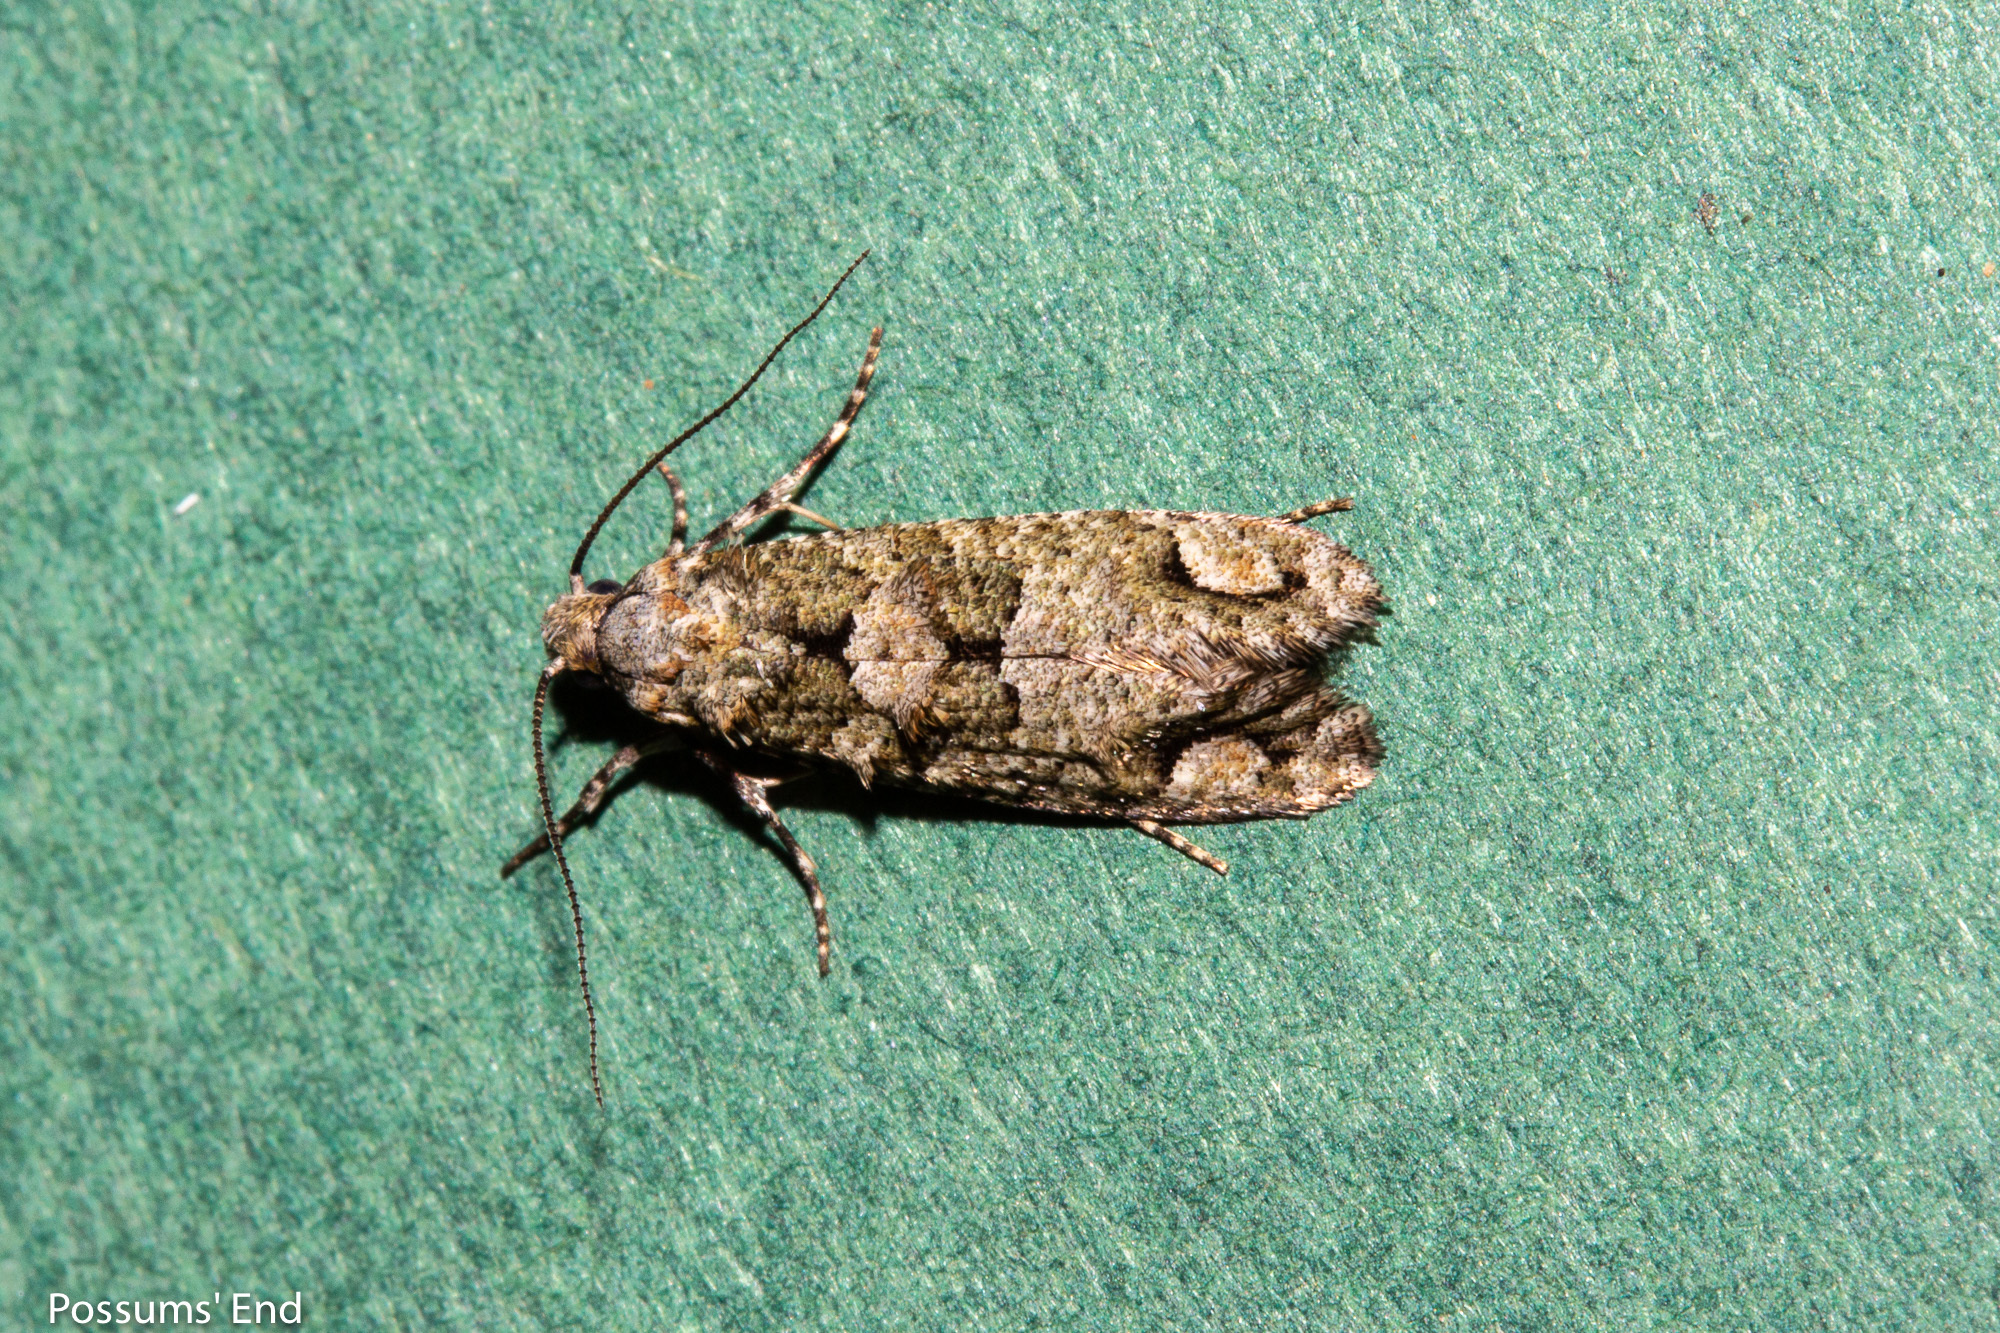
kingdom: Animalia
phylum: Arthropoda
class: Insecta
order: Lepidoptera
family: Tineidae
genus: Lysiphragma
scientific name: Lysiphragma howesii
